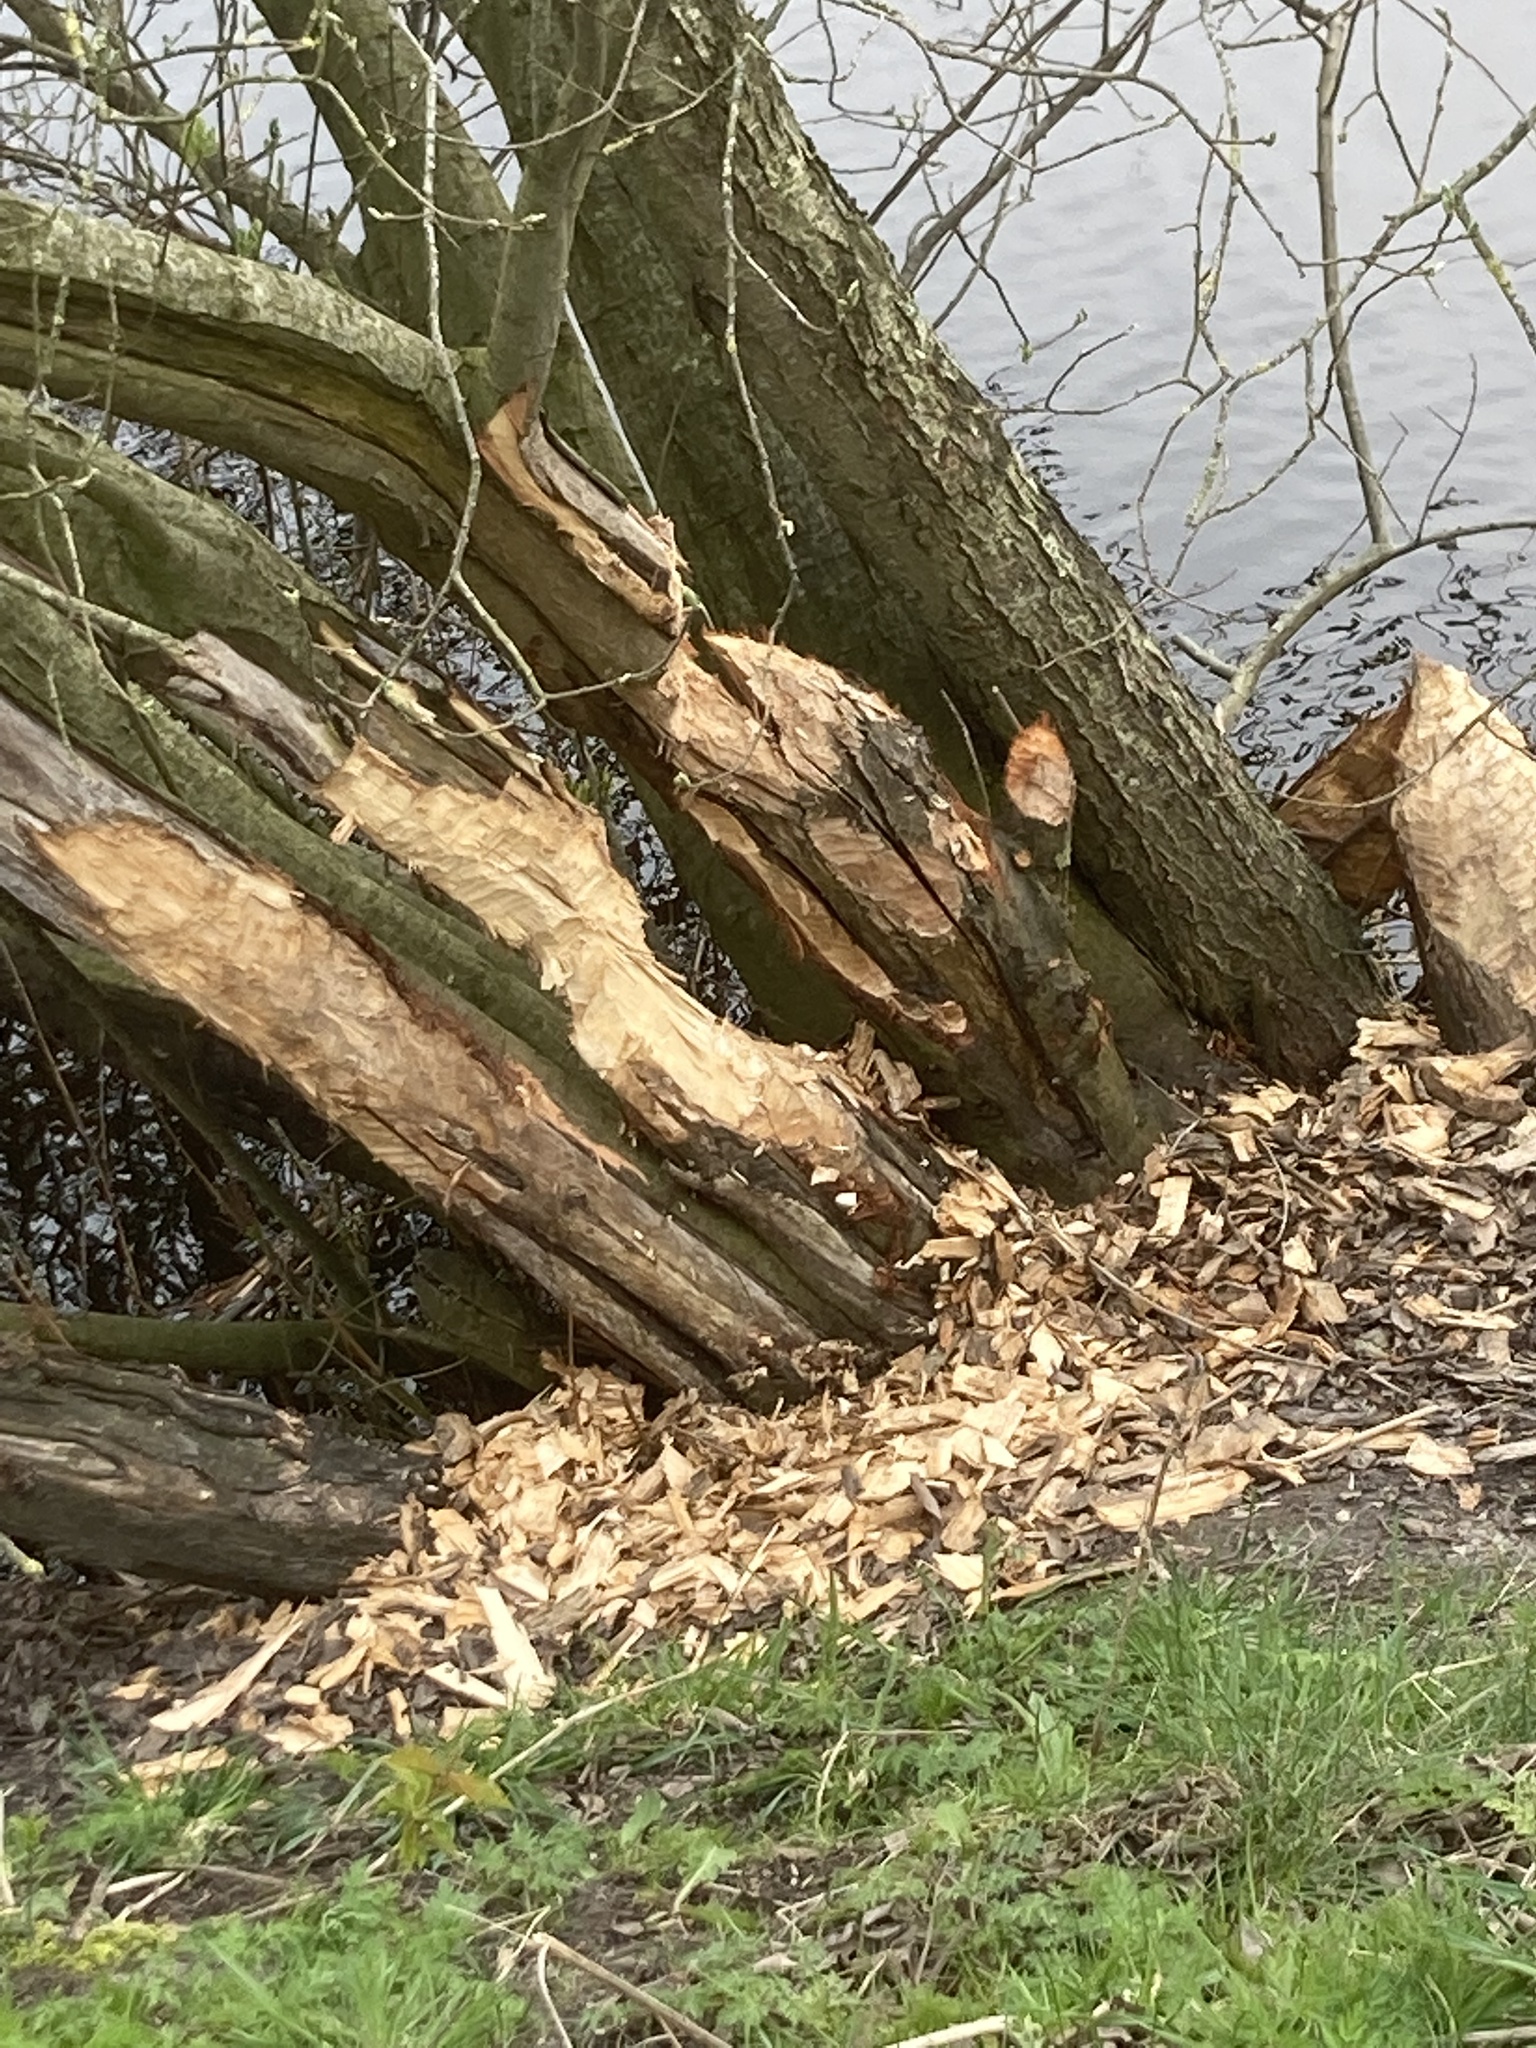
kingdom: Animalia
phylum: Chordata
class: Mammalia
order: Rodentia
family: Castoridae
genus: Castor
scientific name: Castor fiber
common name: Eurasian beaver
